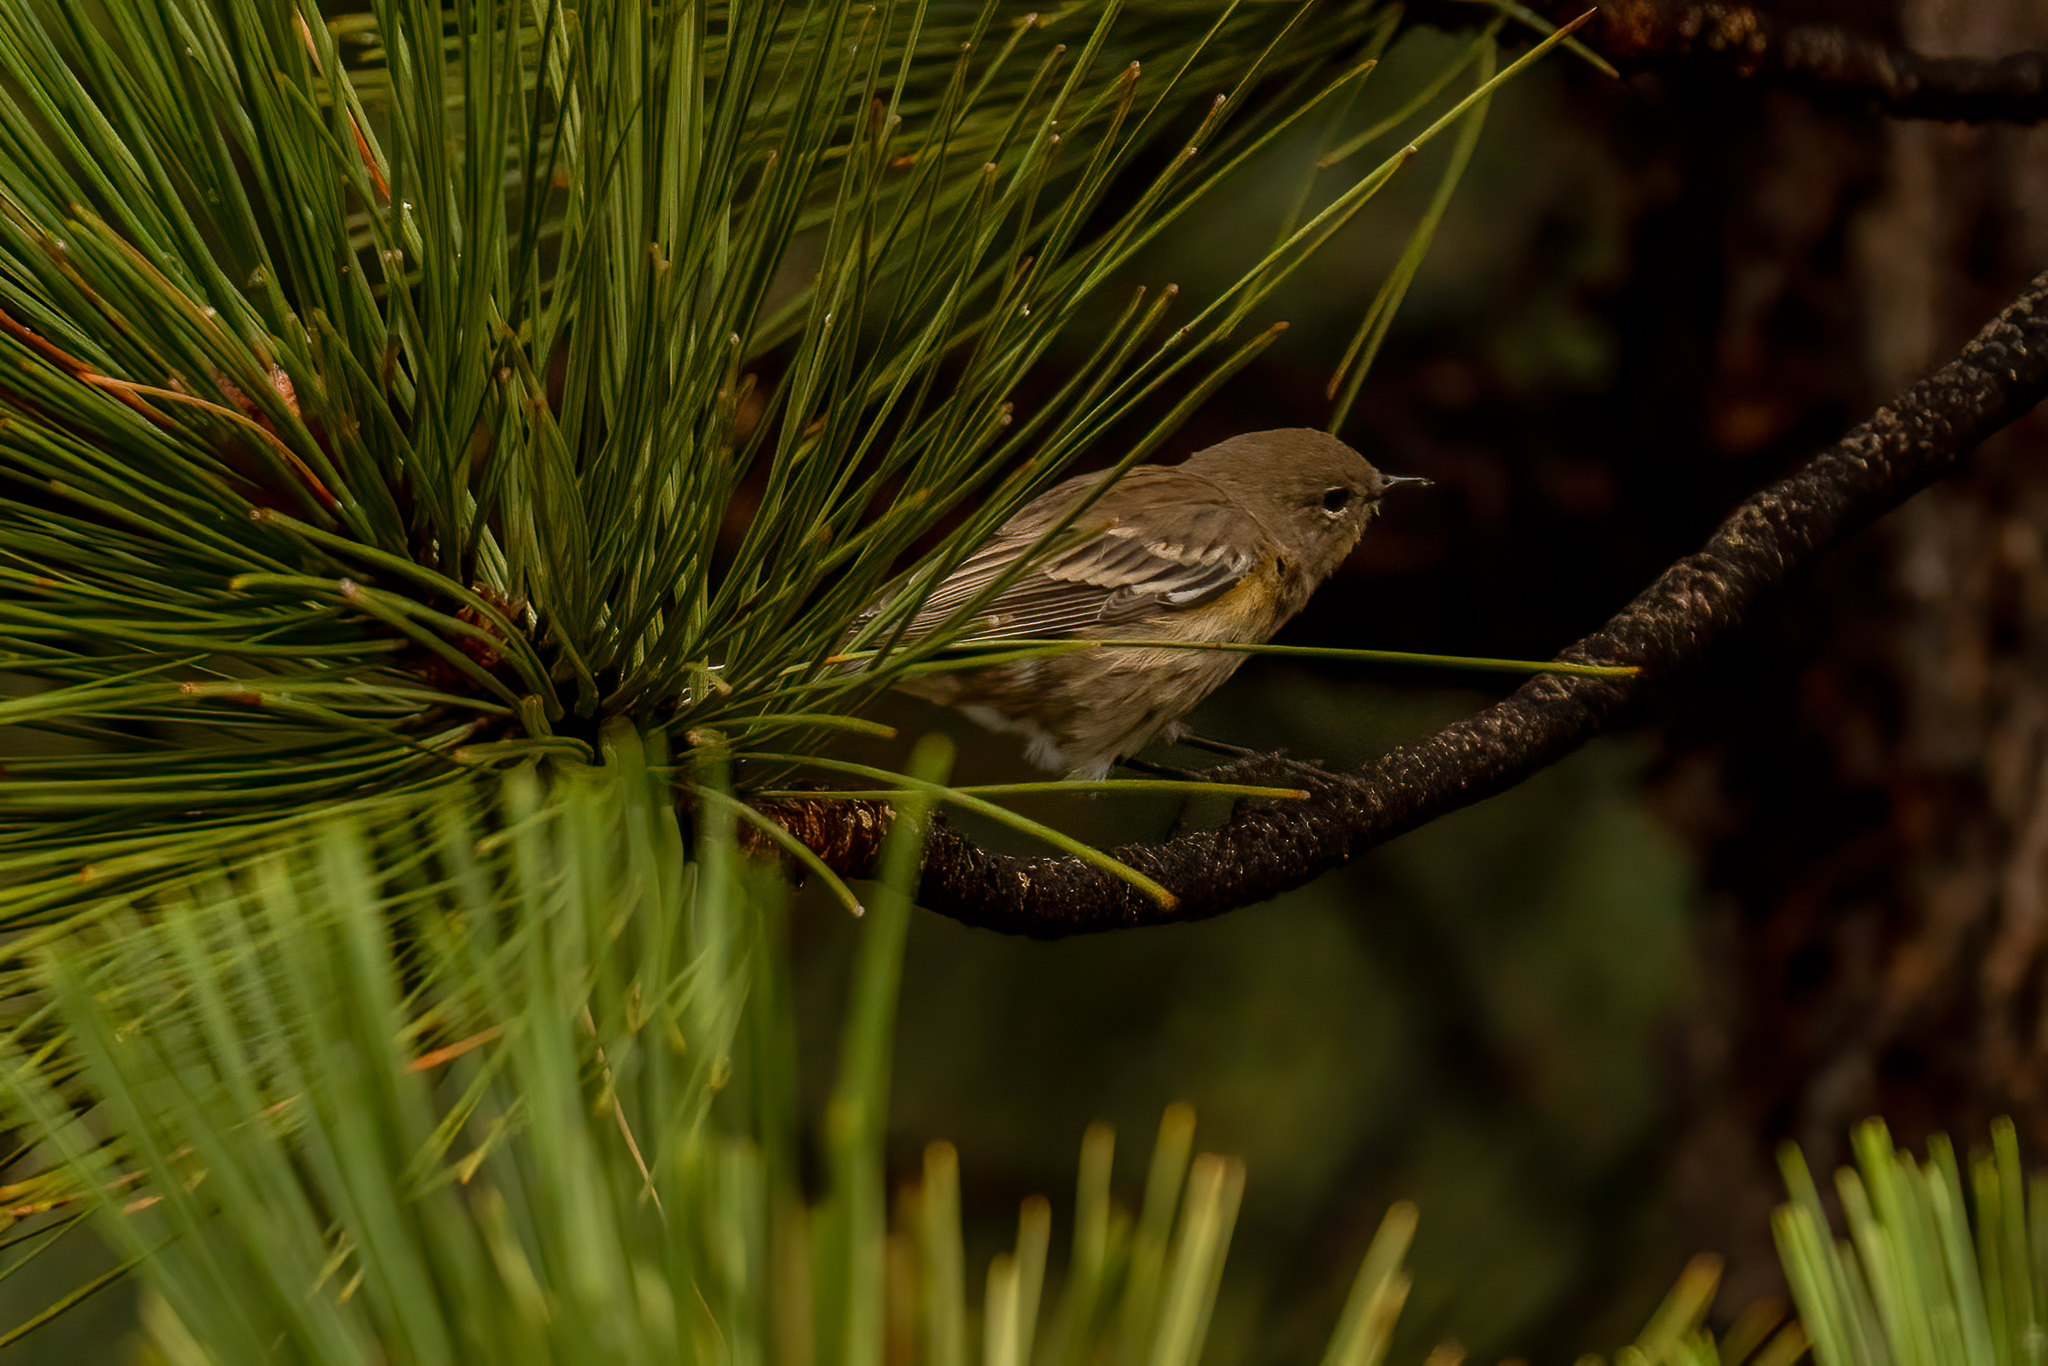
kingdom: Animalia
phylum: Chordata
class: Aves
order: Passeriformes
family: Parulidae
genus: Setophaga
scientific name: Setophaga coronata
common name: Myrtle warbler
